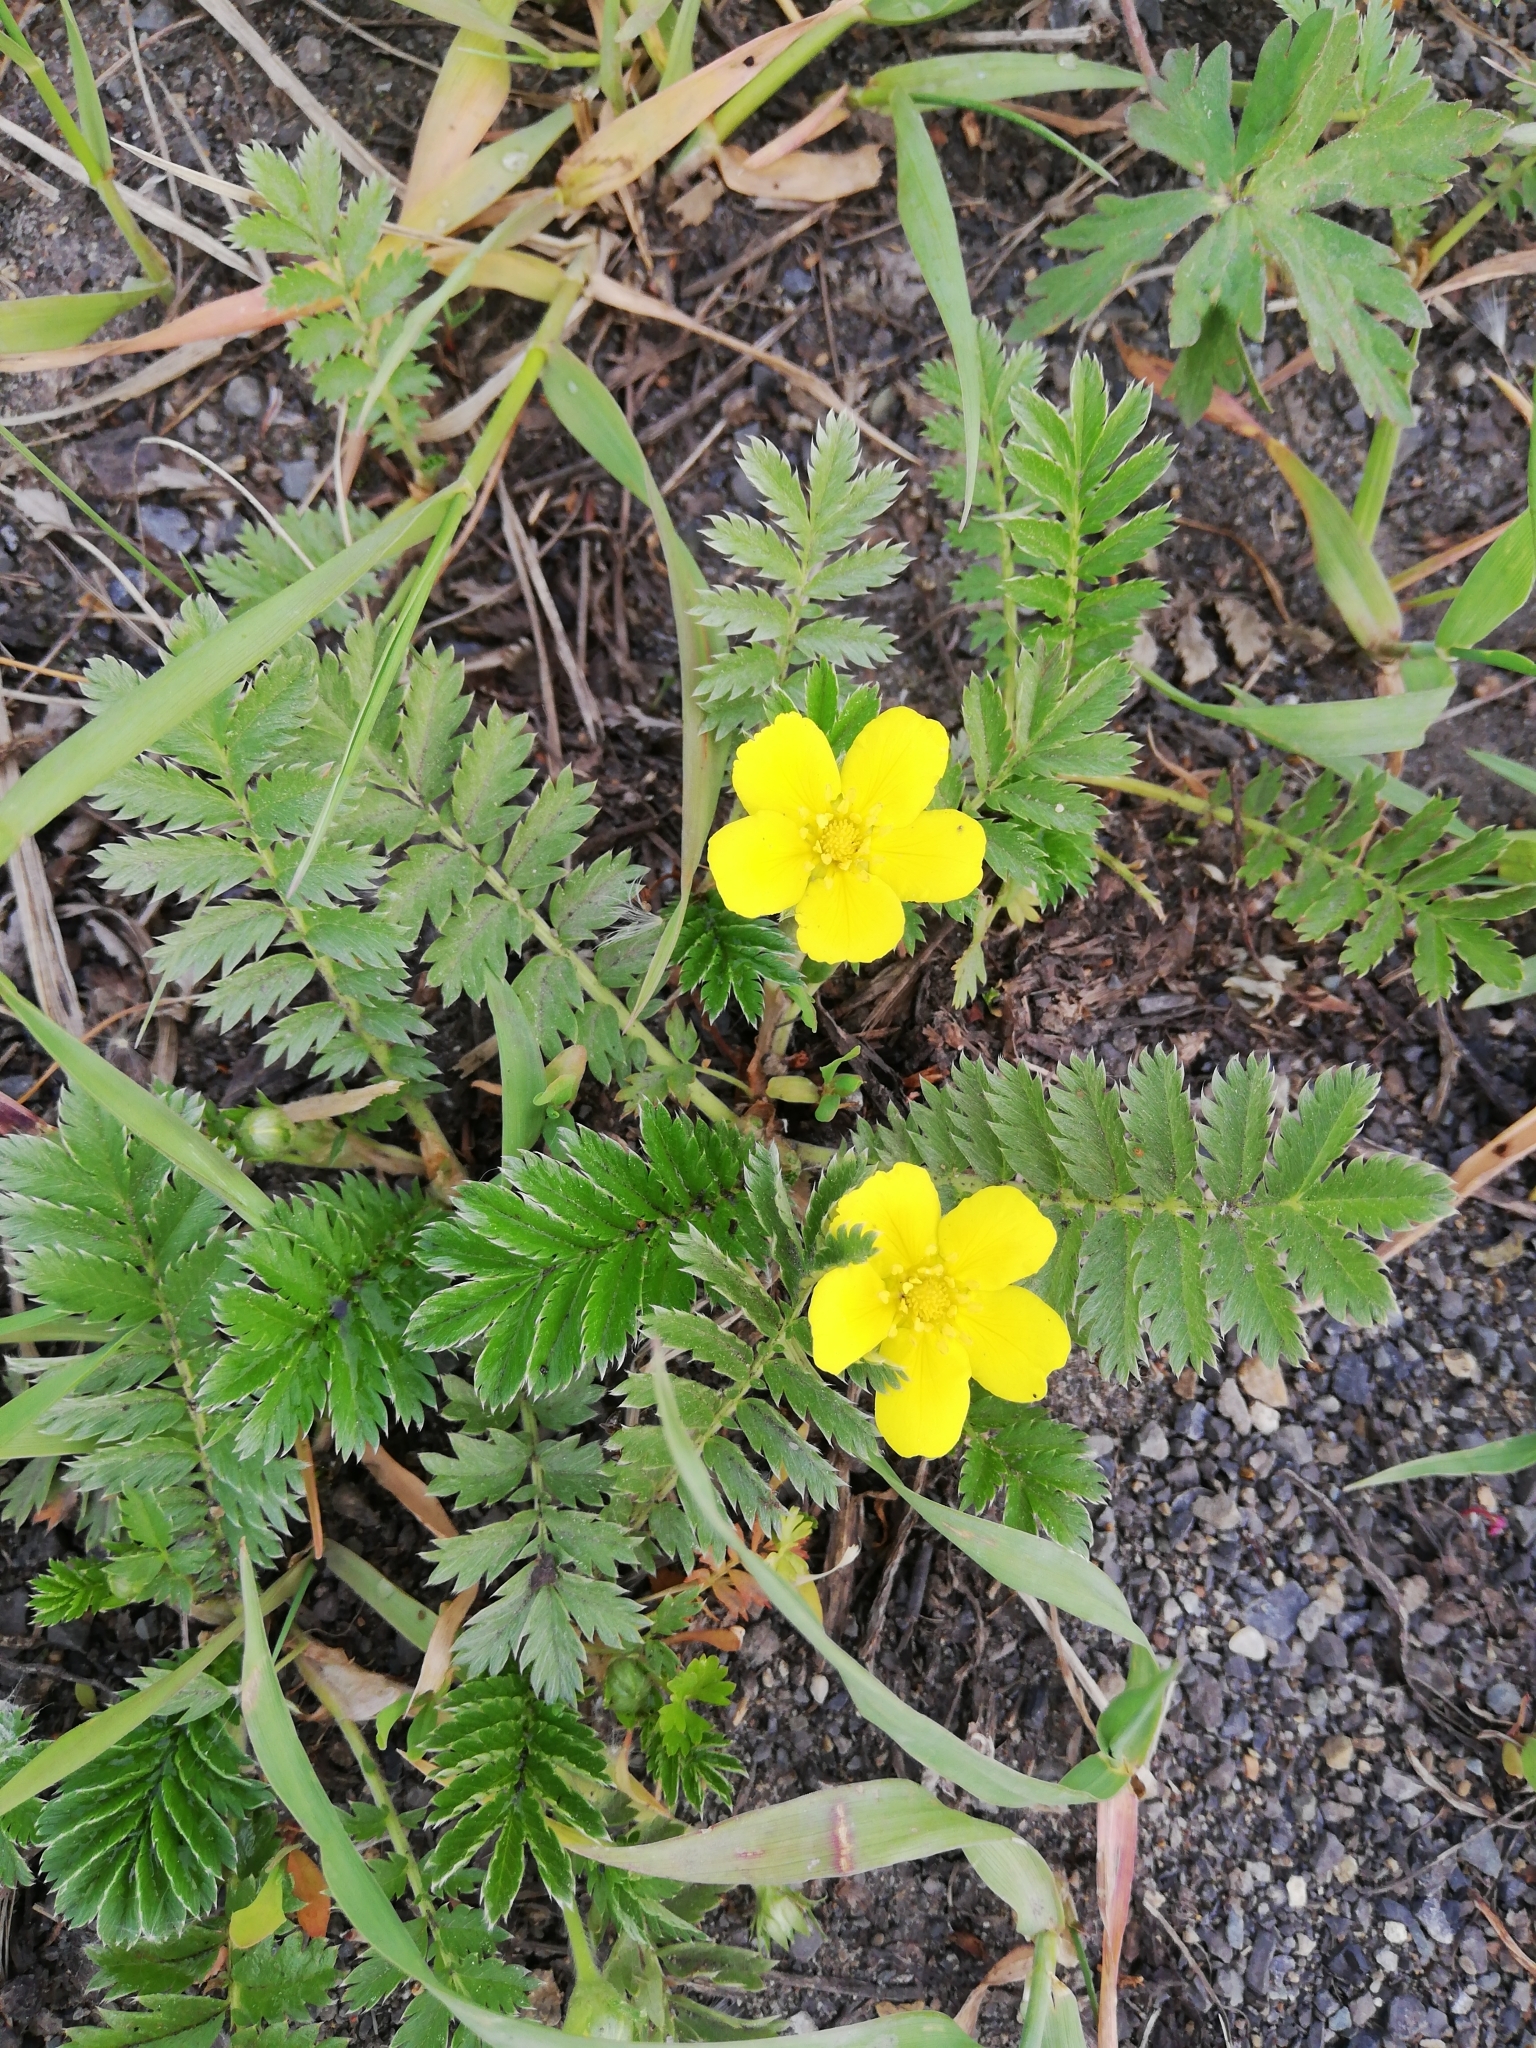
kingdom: Plantae
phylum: Tracheophyta
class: Magnoliopsida
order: Rosales
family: Rosaceae
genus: Argentina
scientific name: Argentina anserina
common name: Common silverweed
